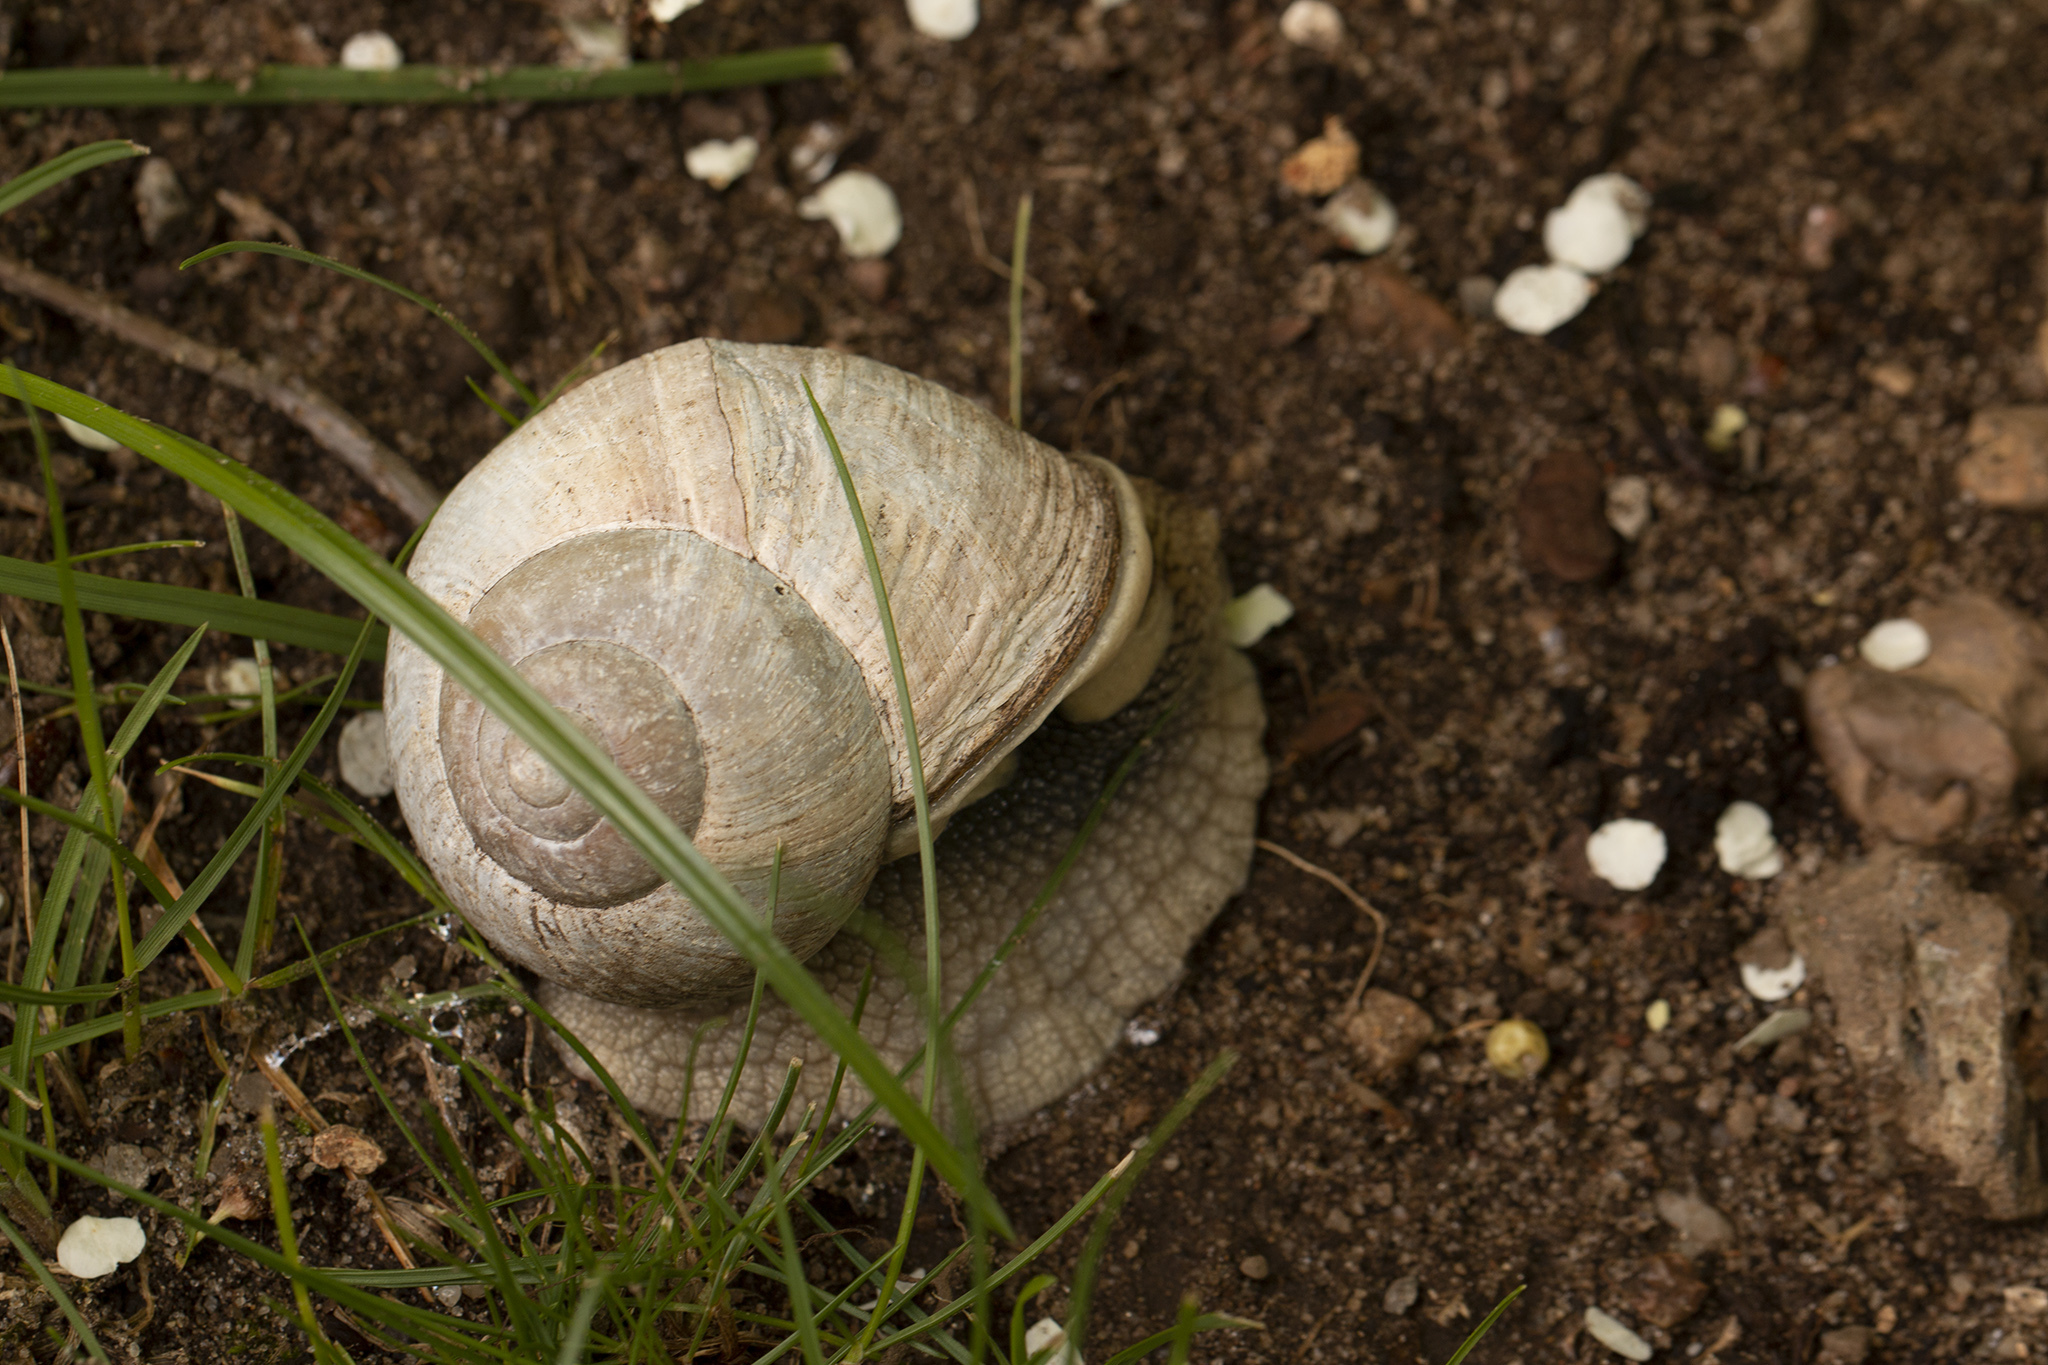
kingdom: Animalia
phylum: Mollusca
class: Gastropoda
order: Stylommatophora
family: Helicidae
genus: Helix
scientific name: Helix pomatia
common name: Roman snail
